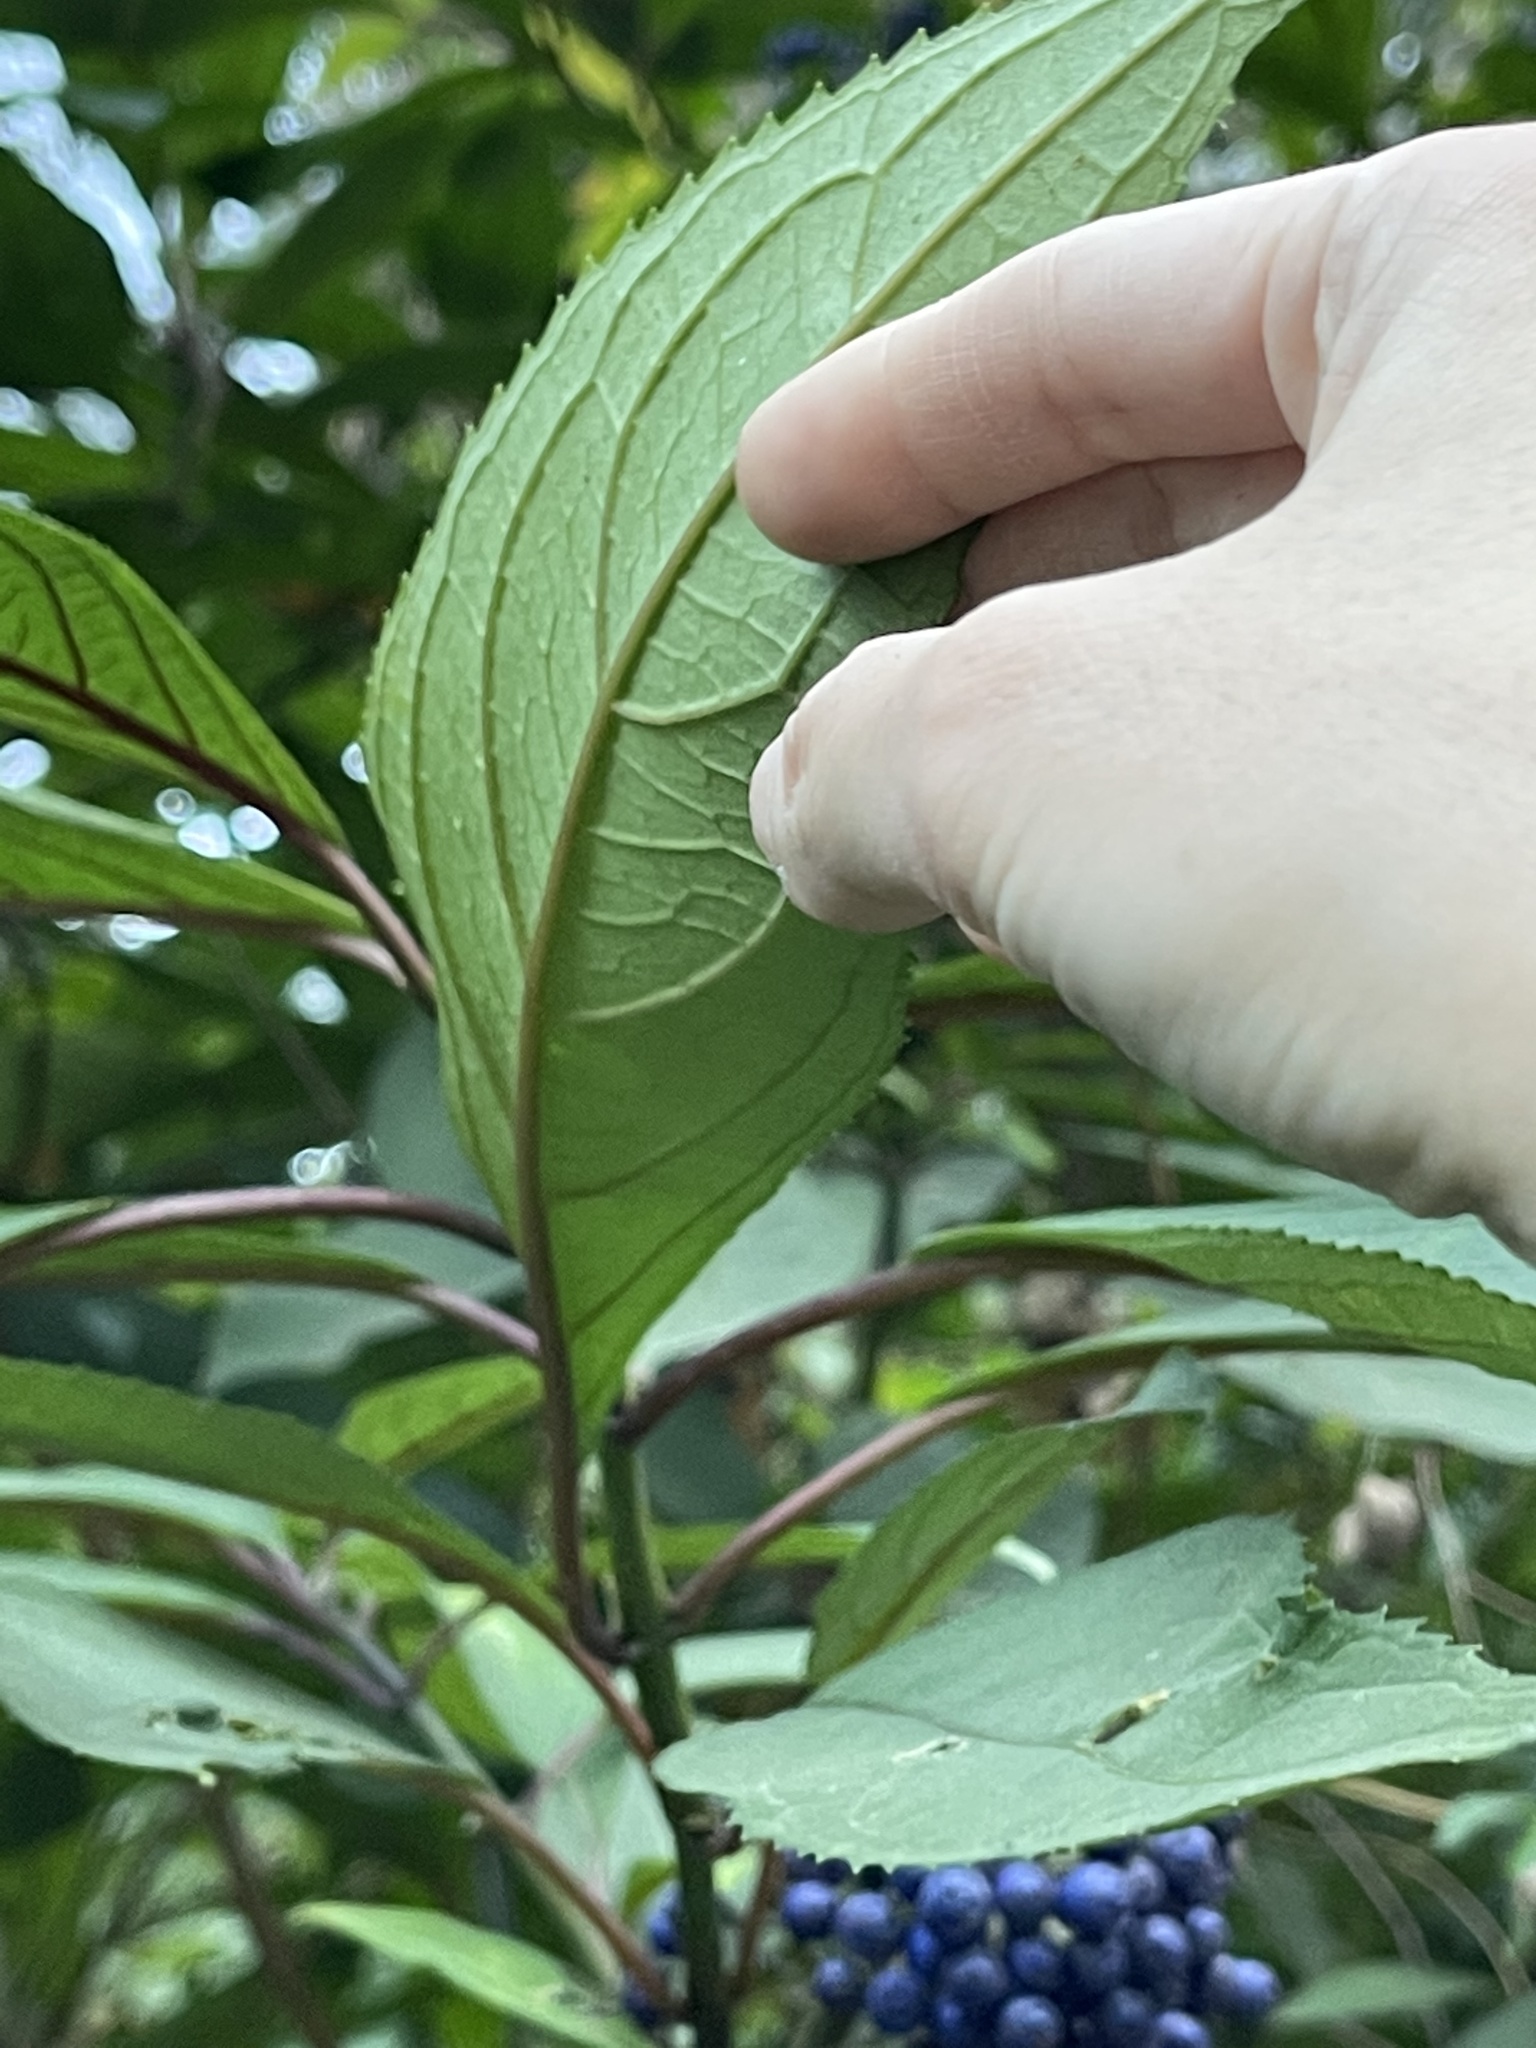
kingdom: Plantae
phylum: Tracheophyta
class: Magnoliopsida
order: Cornales
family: Hydrangeaceae
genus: Hydrangea
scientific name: Hydrangea febrifuga
